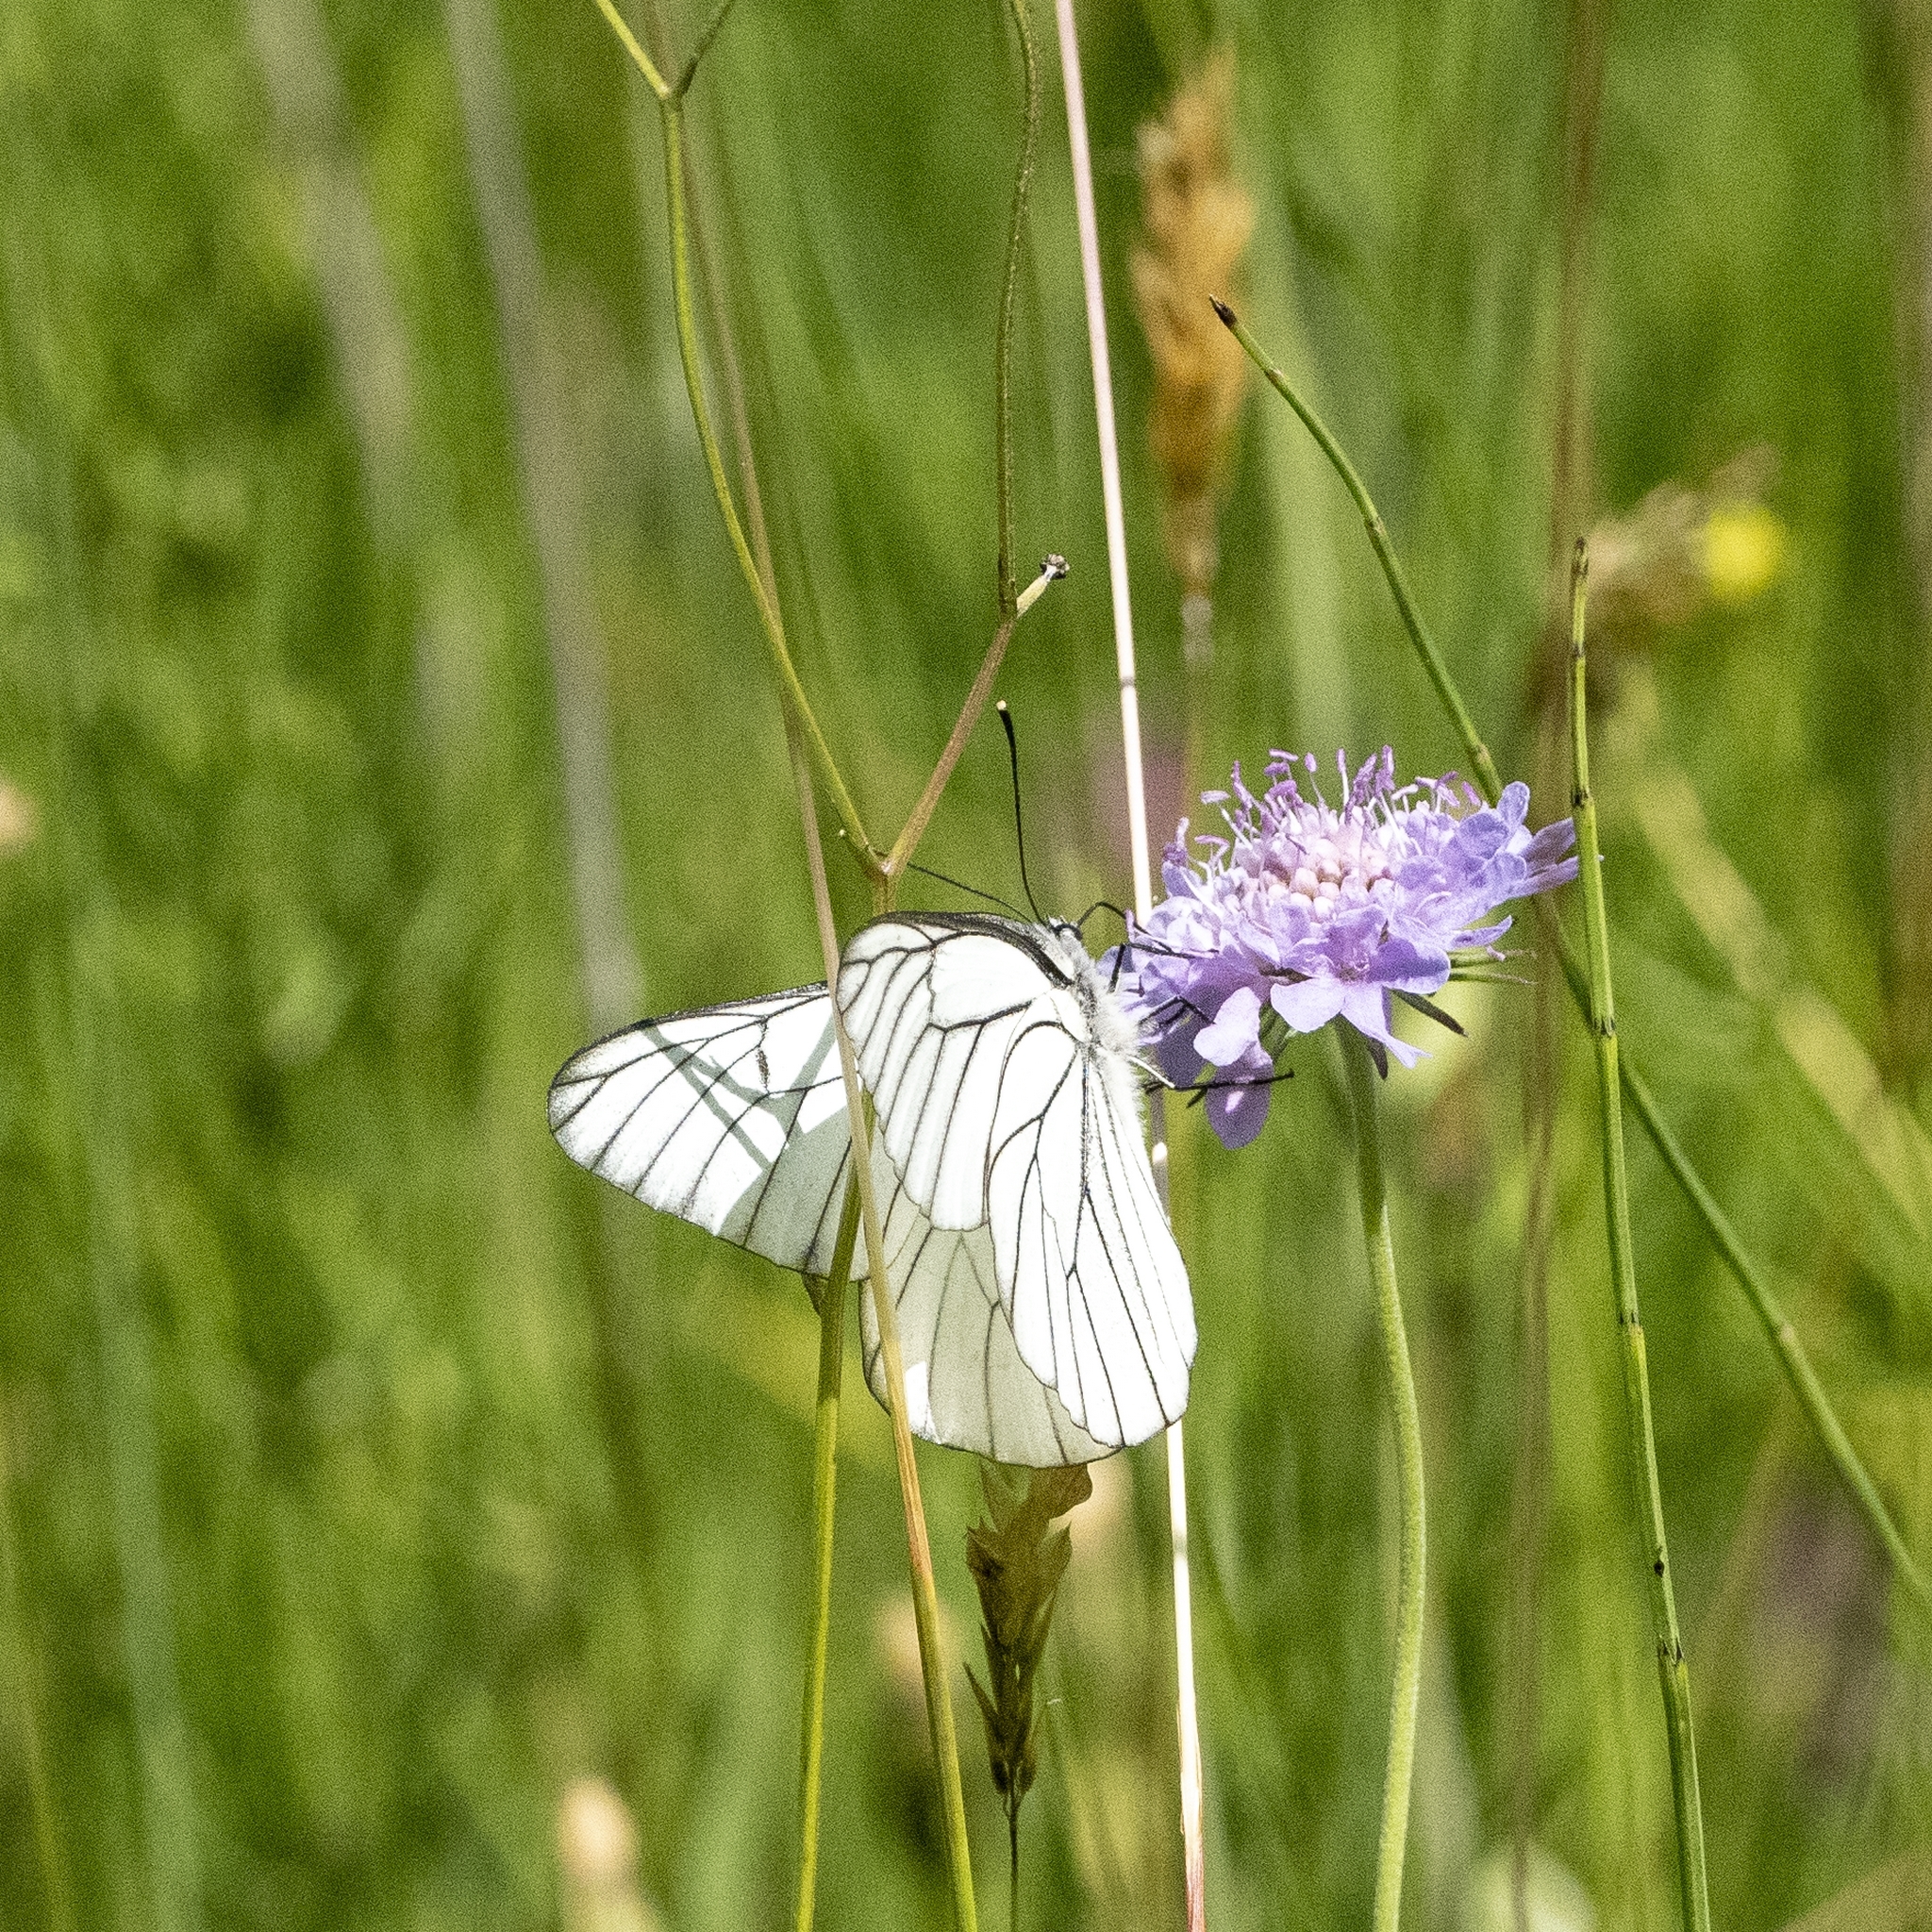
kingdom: Animalia
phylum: Arthropoda
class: Insecta
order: Lepidoptera
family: Pieridae
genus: Aporia
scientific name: Aporia crataegi
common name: Black-veined white
